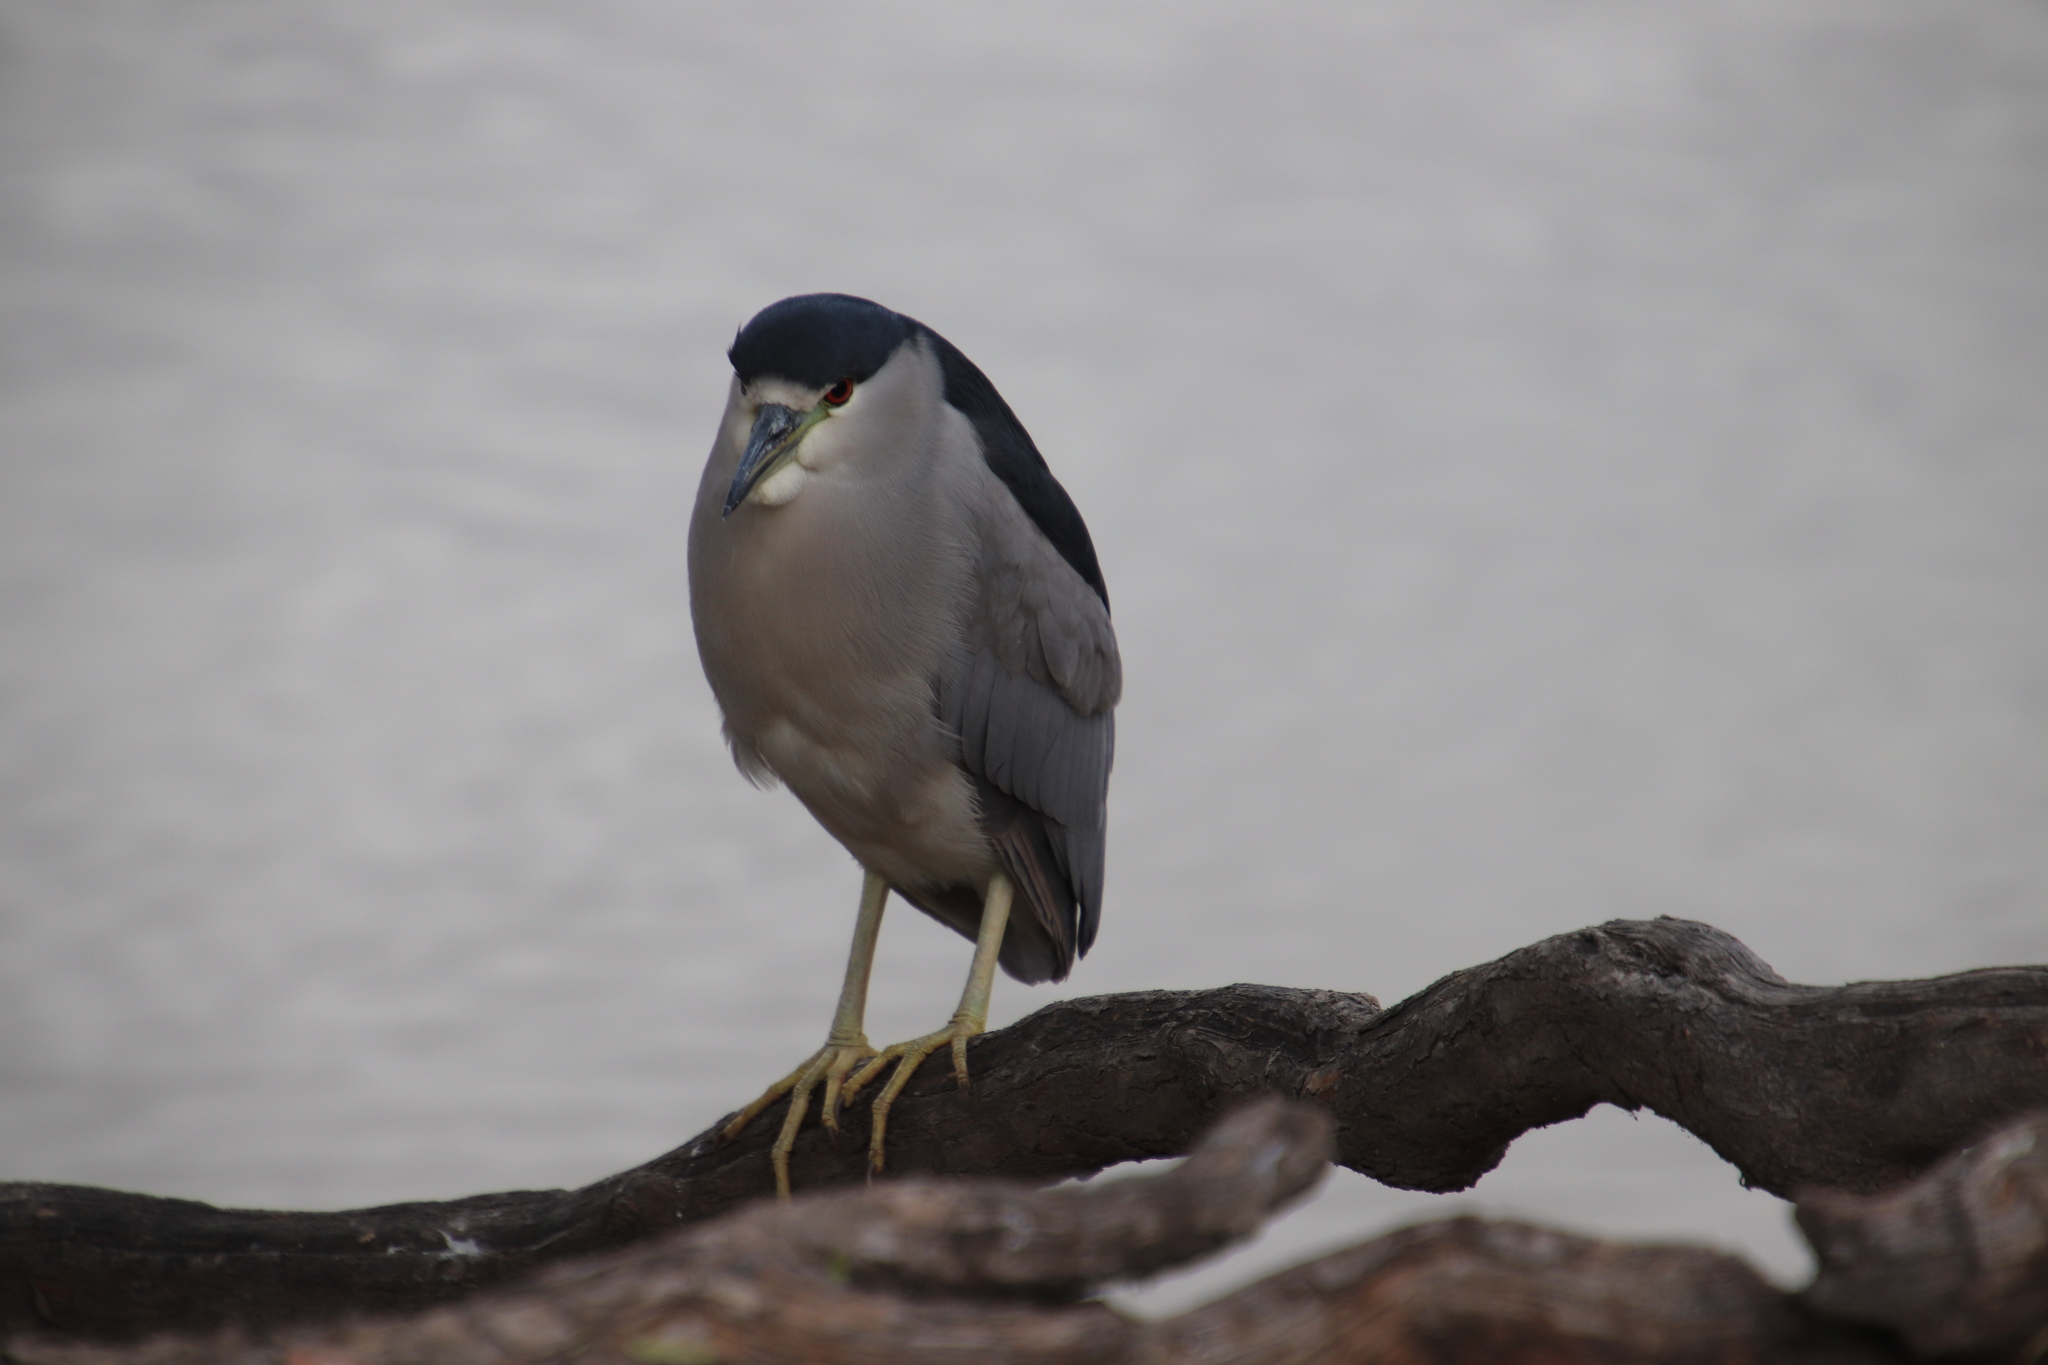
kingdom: Animalia
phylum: Chordata
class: Aves
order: Pelecaniformes
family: Ardeidae
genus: Nycticorax
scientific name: Nycticorax nycticorax
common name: Black-crowned night heron
